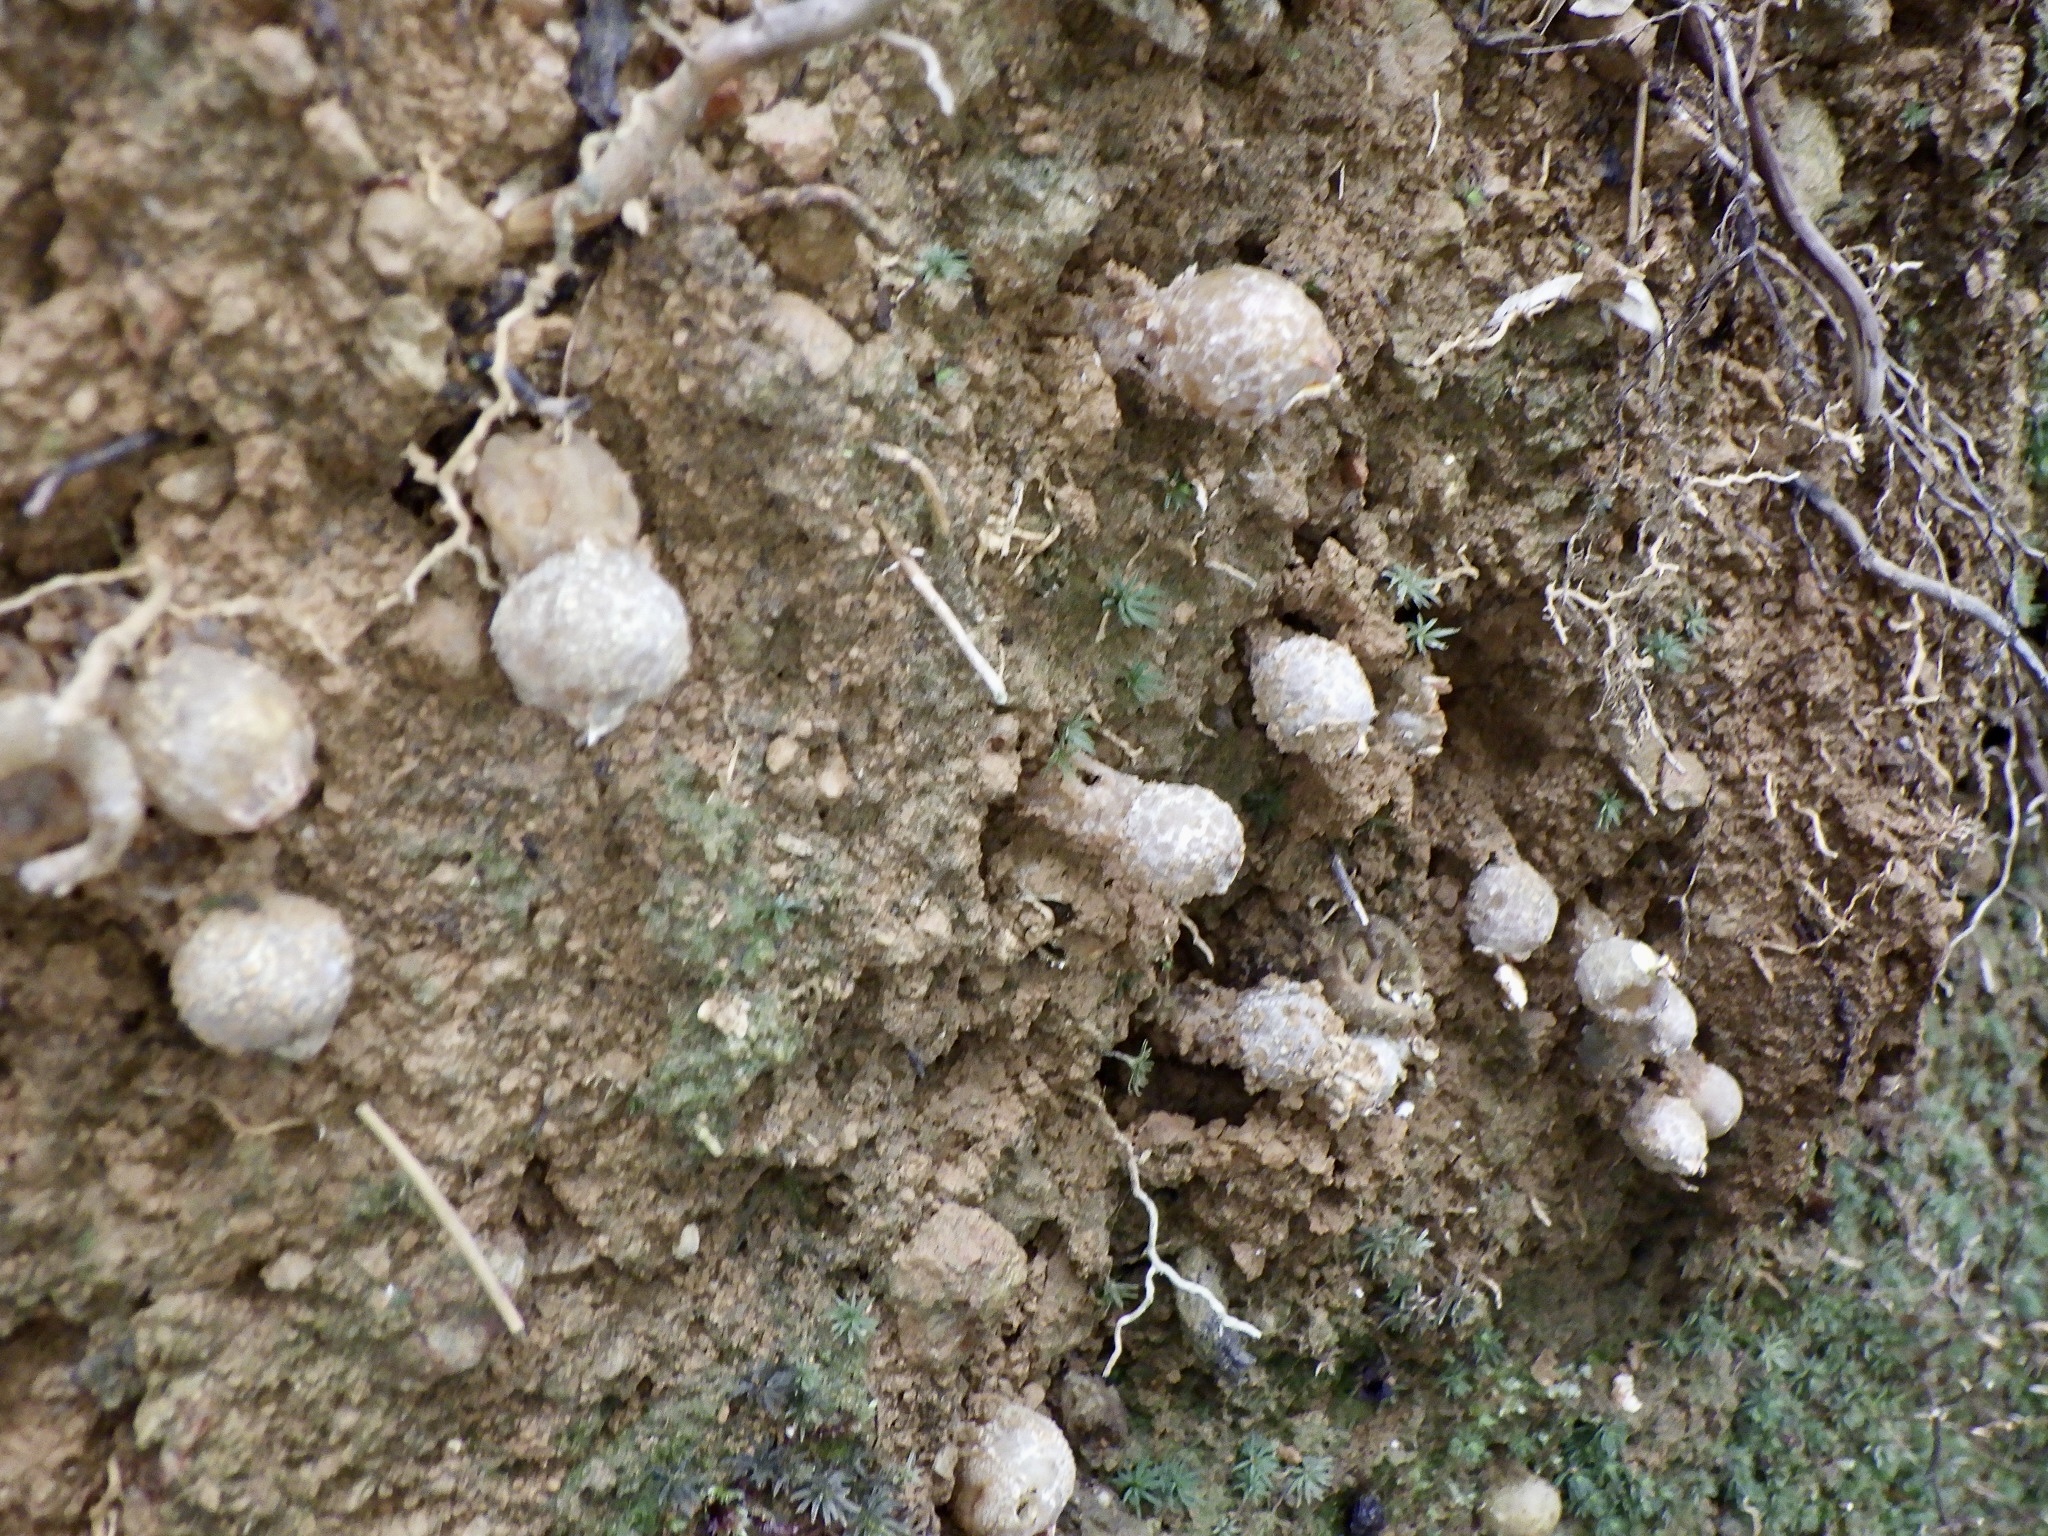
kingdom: Fungi
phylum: Basidiomycota
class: Agaricomycetes
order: Boletales
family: Calostomataceae
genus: Calostoma
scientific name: Calostoma japonicum
